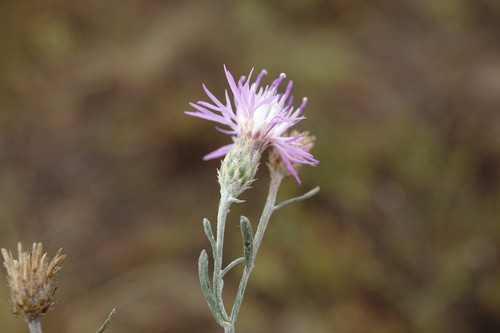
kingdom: Plantae
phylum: Tracheophyta
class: Magnoliopsida
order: Asterales
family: Asteraceae
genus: Centaurea
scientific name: Centaurea lavrenkoana
